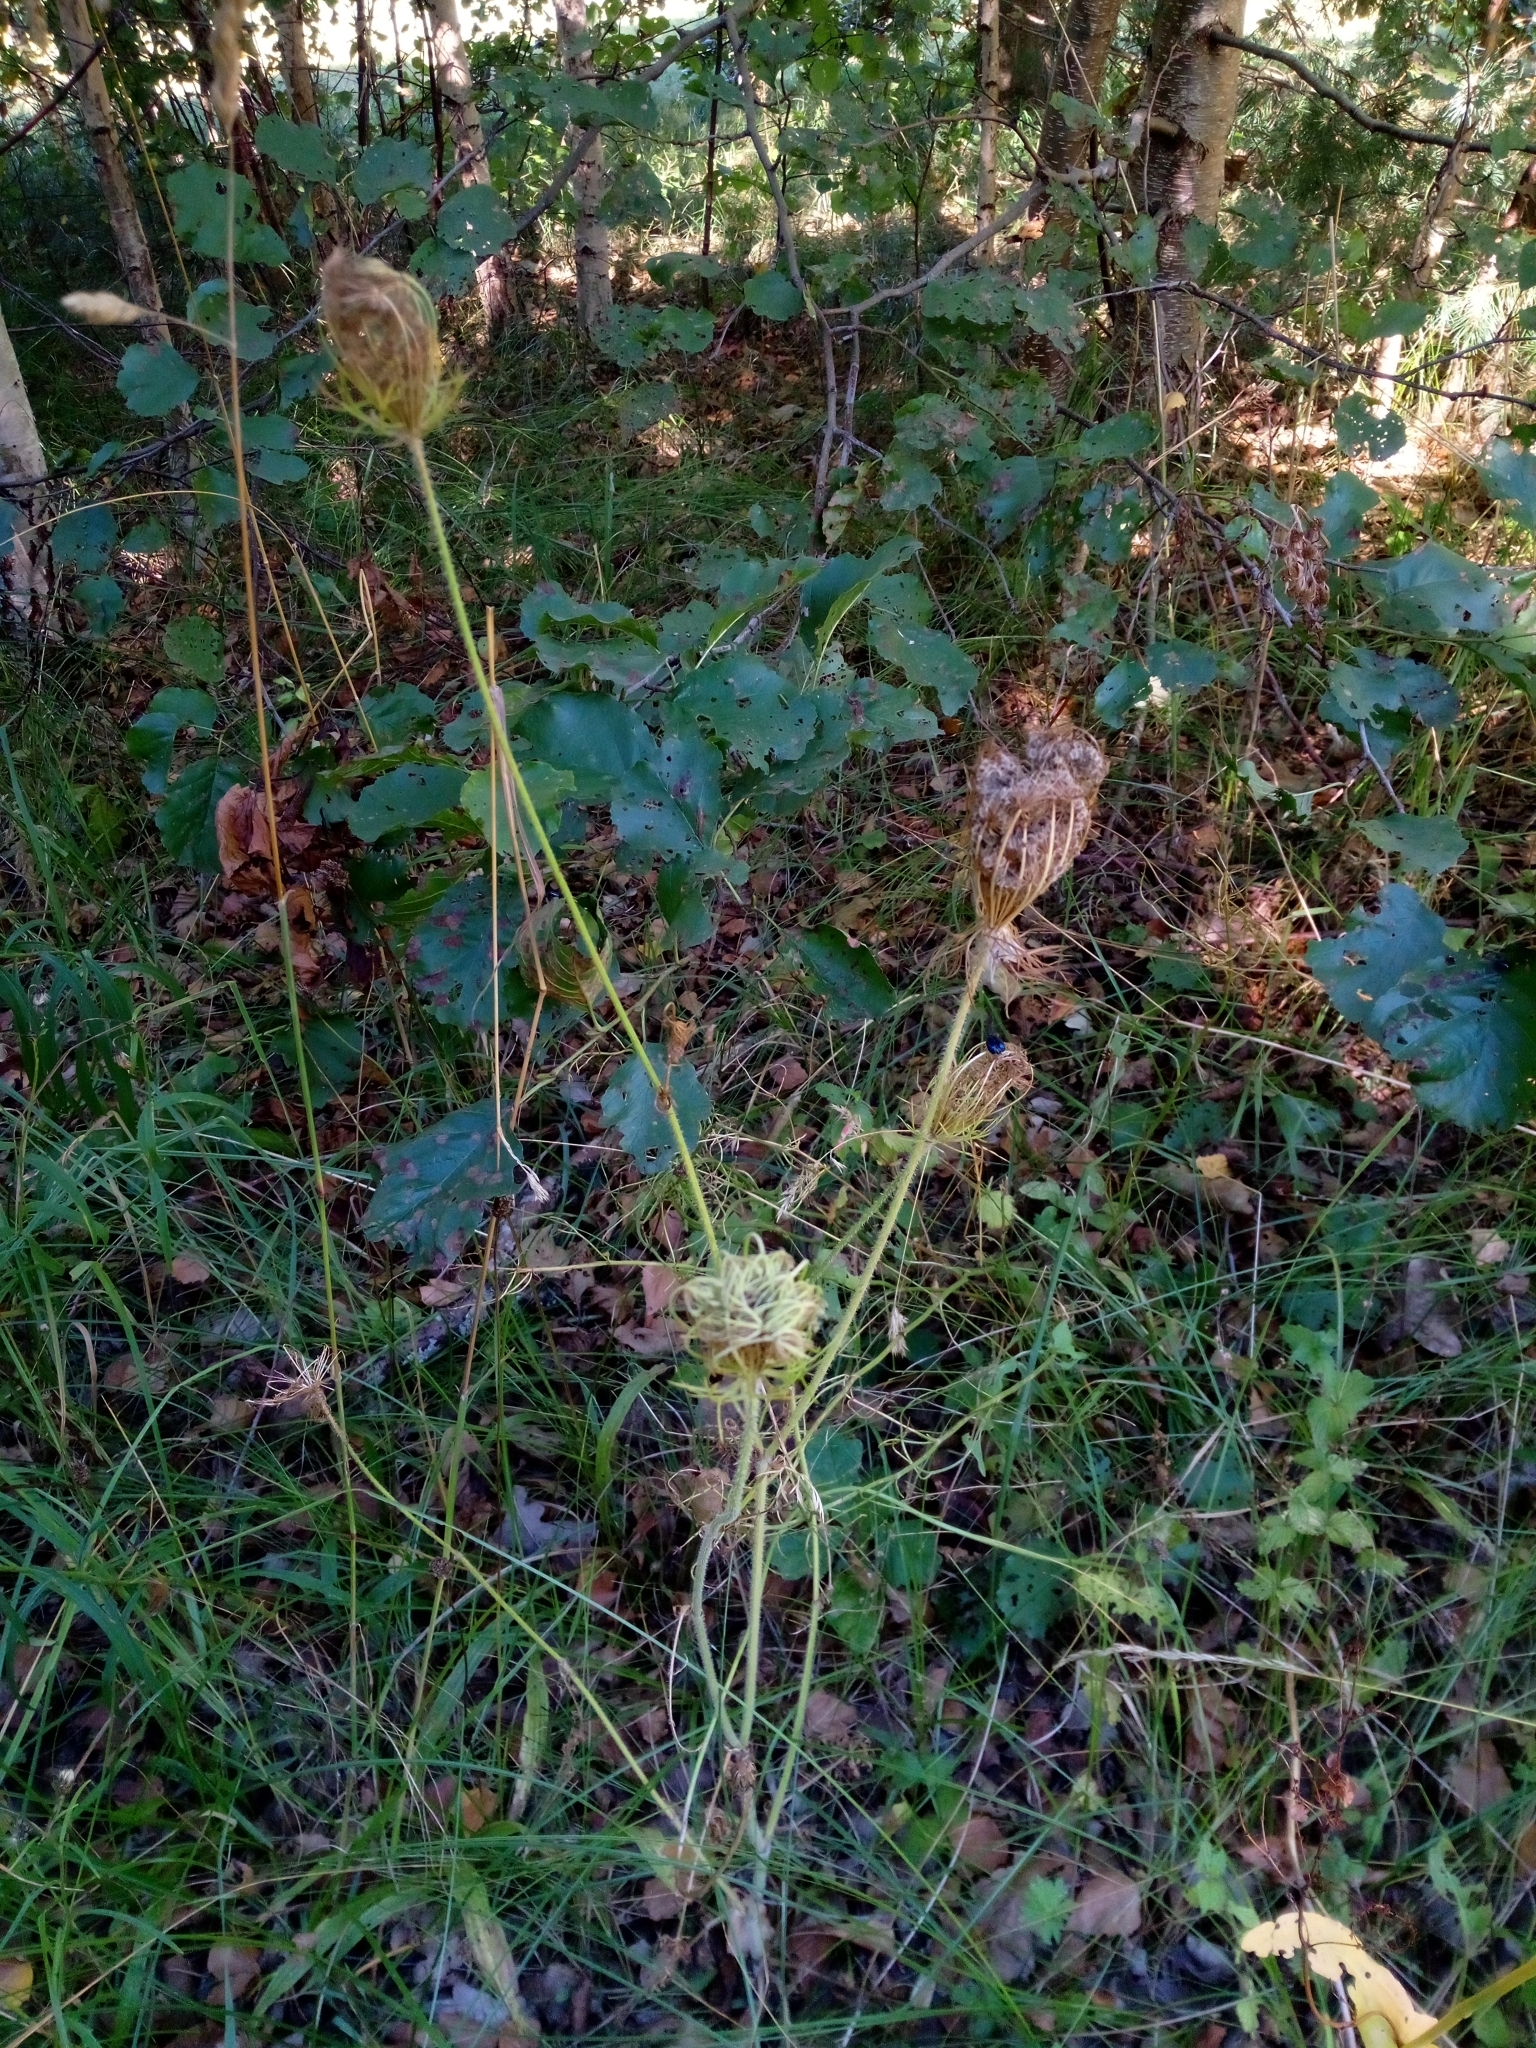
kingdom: Plantae
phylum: Tracheophyta
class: Magnoliopsida
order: Apiales
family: Apiaceae
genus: Daucus
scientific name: Daucus carota
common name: Wild carrot
